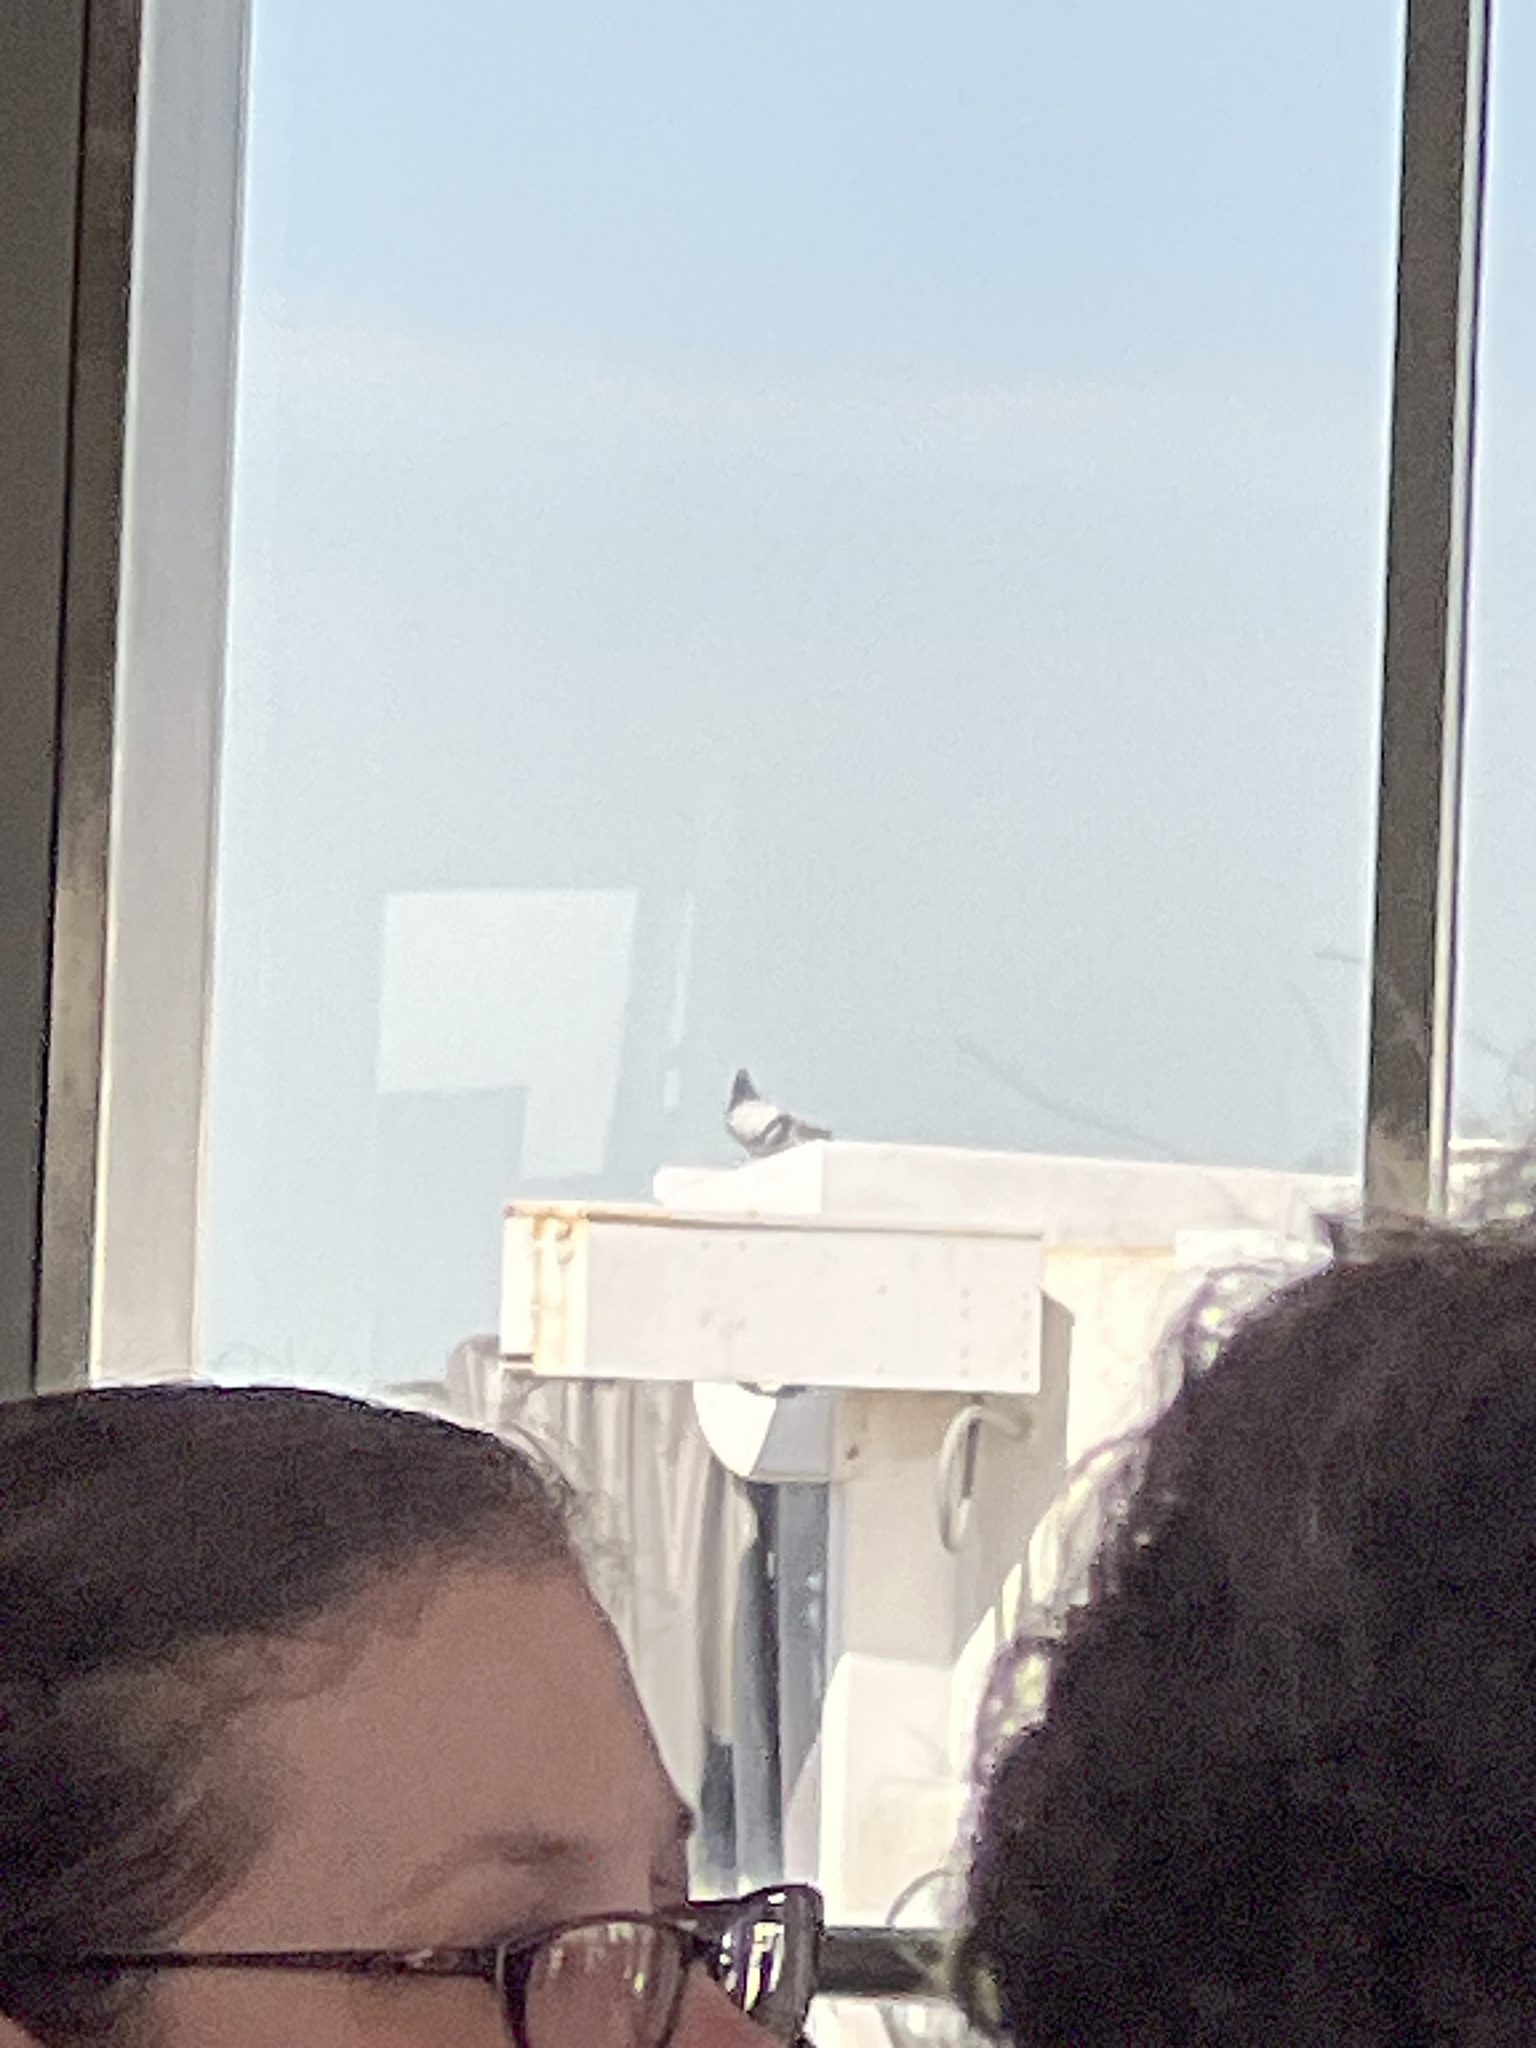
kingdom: Animalia
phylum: Chordata
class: Aves
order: Columbiformes
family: Columbidae
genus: Columba
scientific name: Columba livia
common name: Rock pigeon
